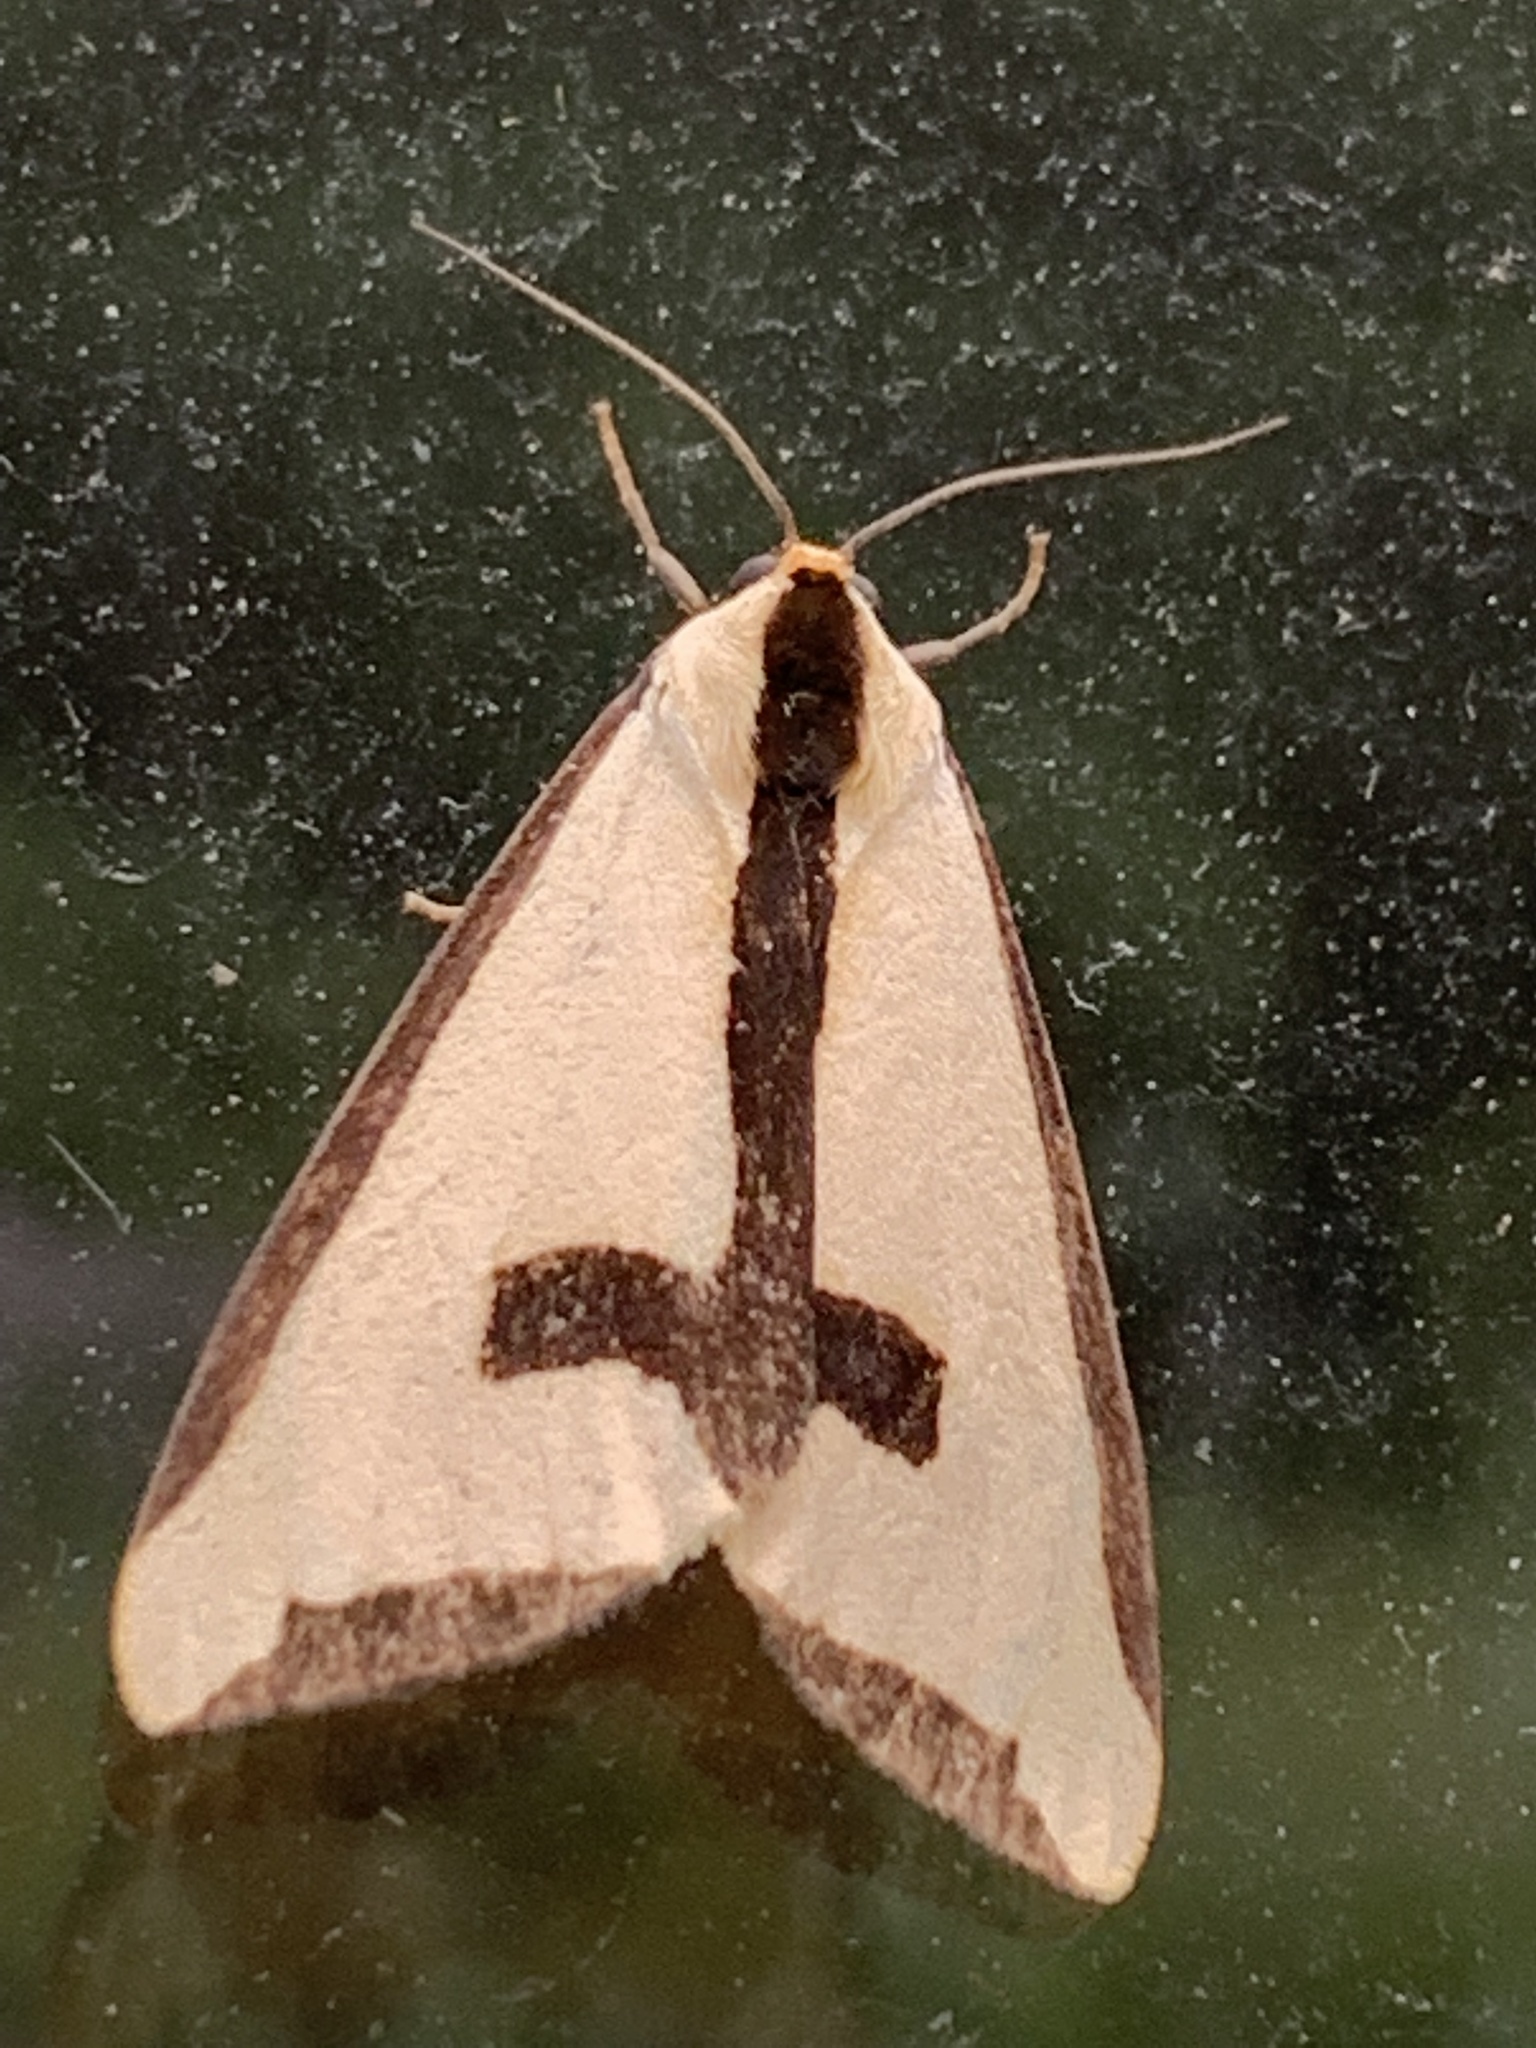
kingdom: Animalia
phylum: Arthropoda
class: Insecta
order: Lepidoptera
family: Erebidae
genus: Haploa
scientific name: Haploa clymene
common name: Clymene moth
